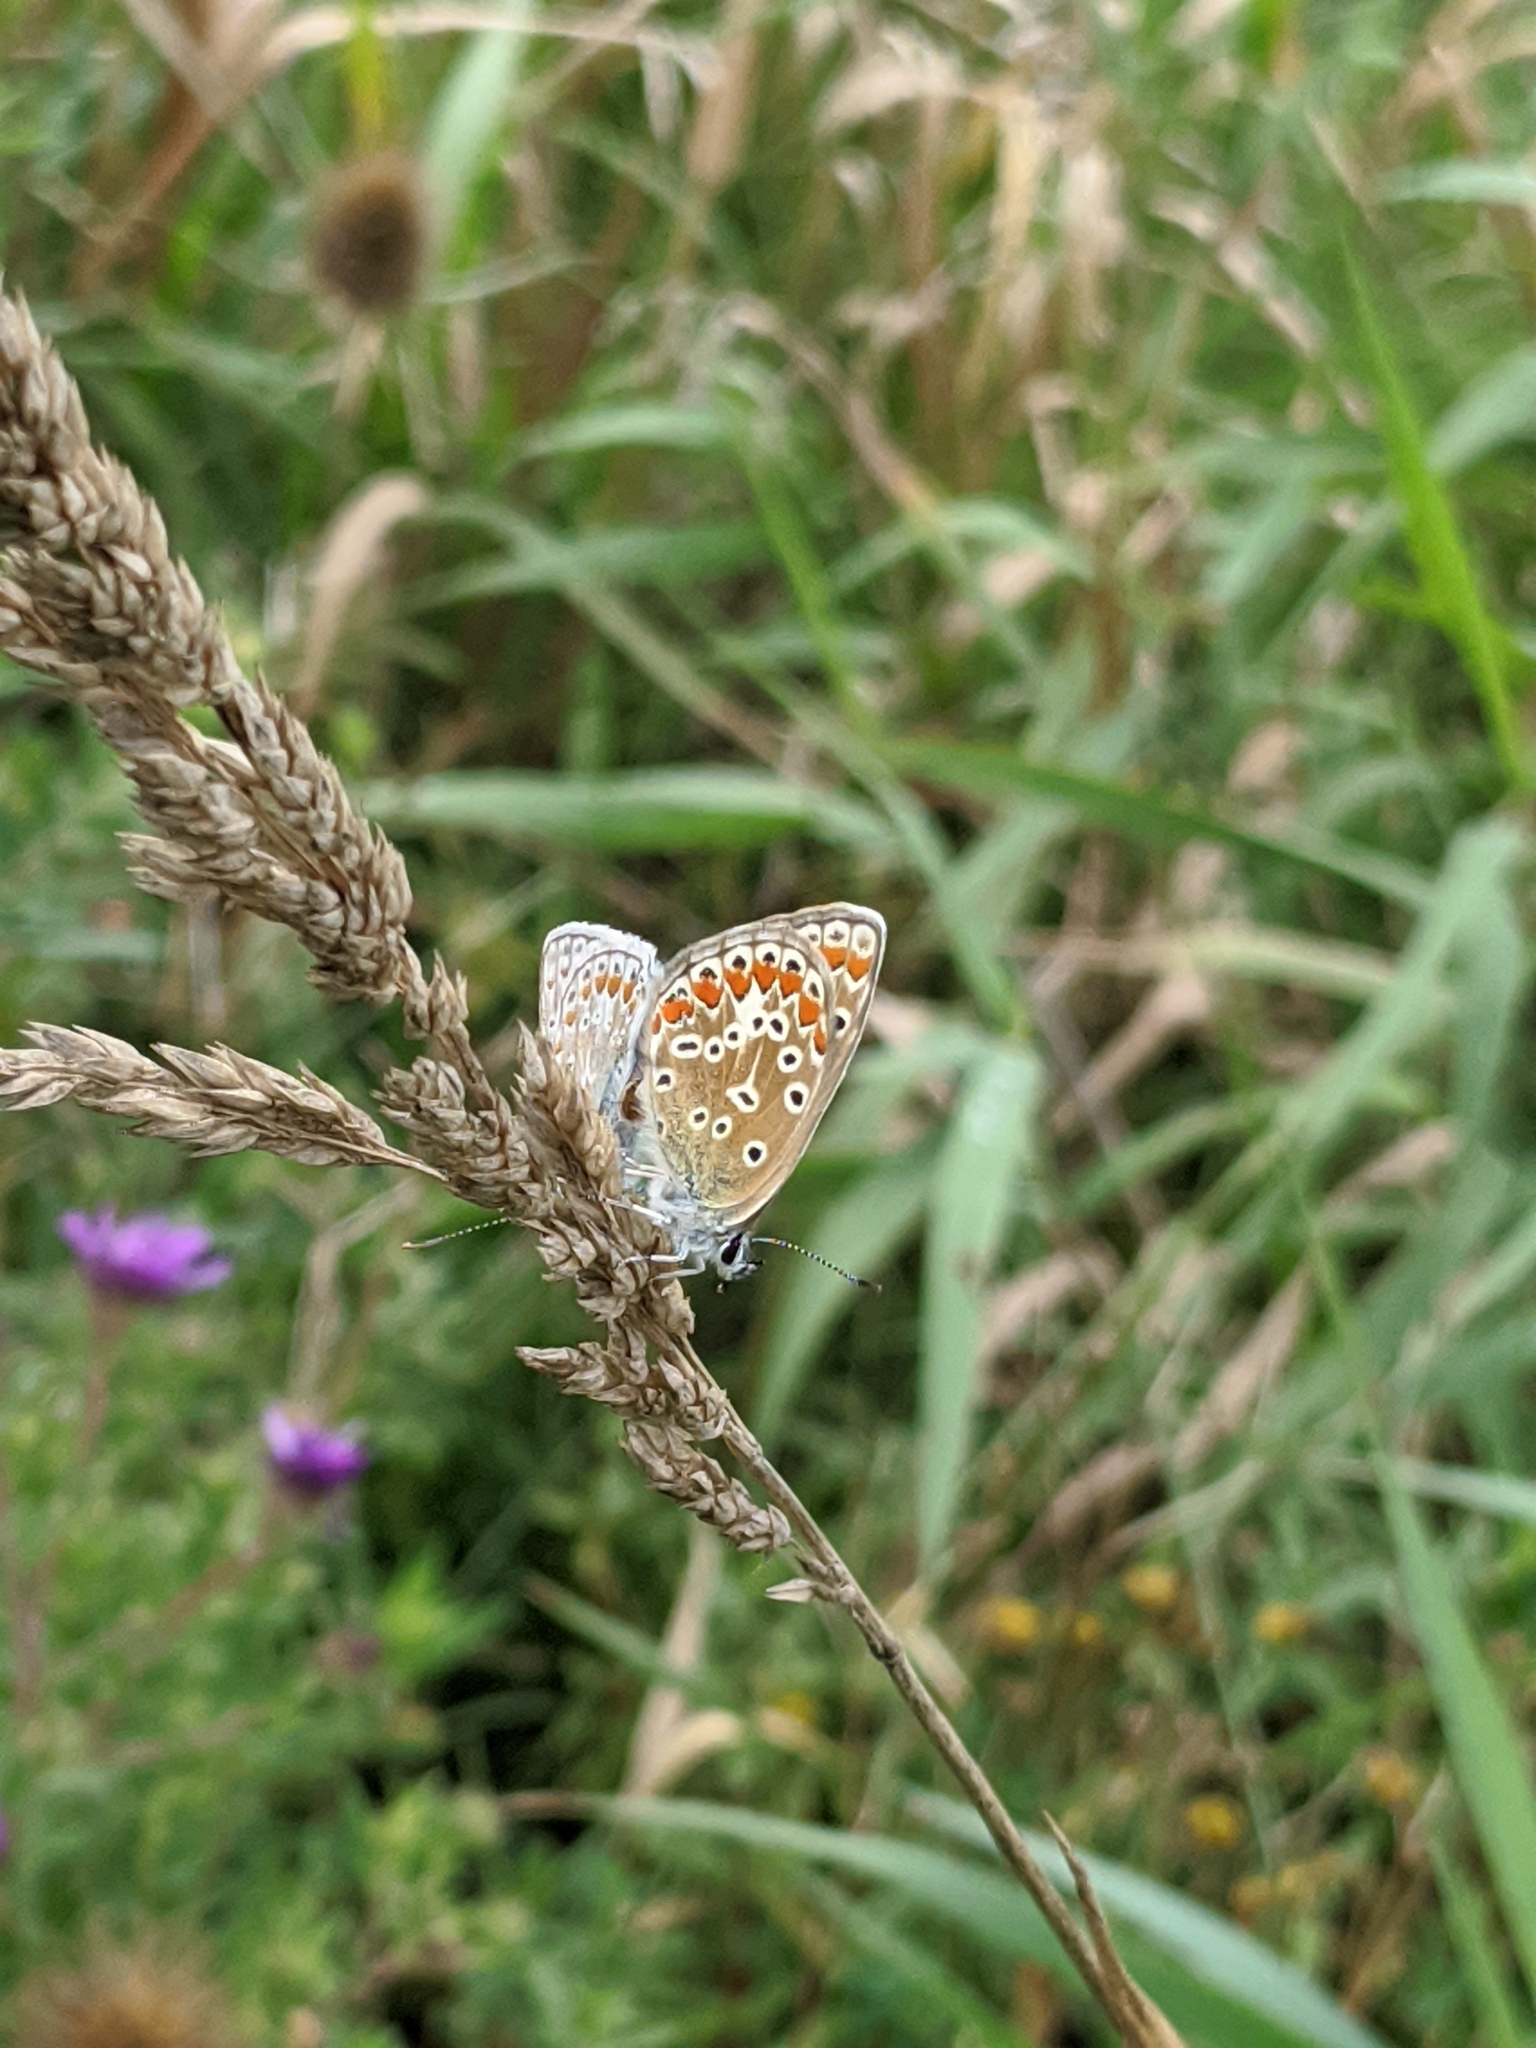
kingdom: Animalia
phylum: Arthropoda
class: Insecta
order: Lepidoptera
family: Lycaenidae
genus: Polyommatus
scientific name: Polyommatus icarus
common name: Common blue
